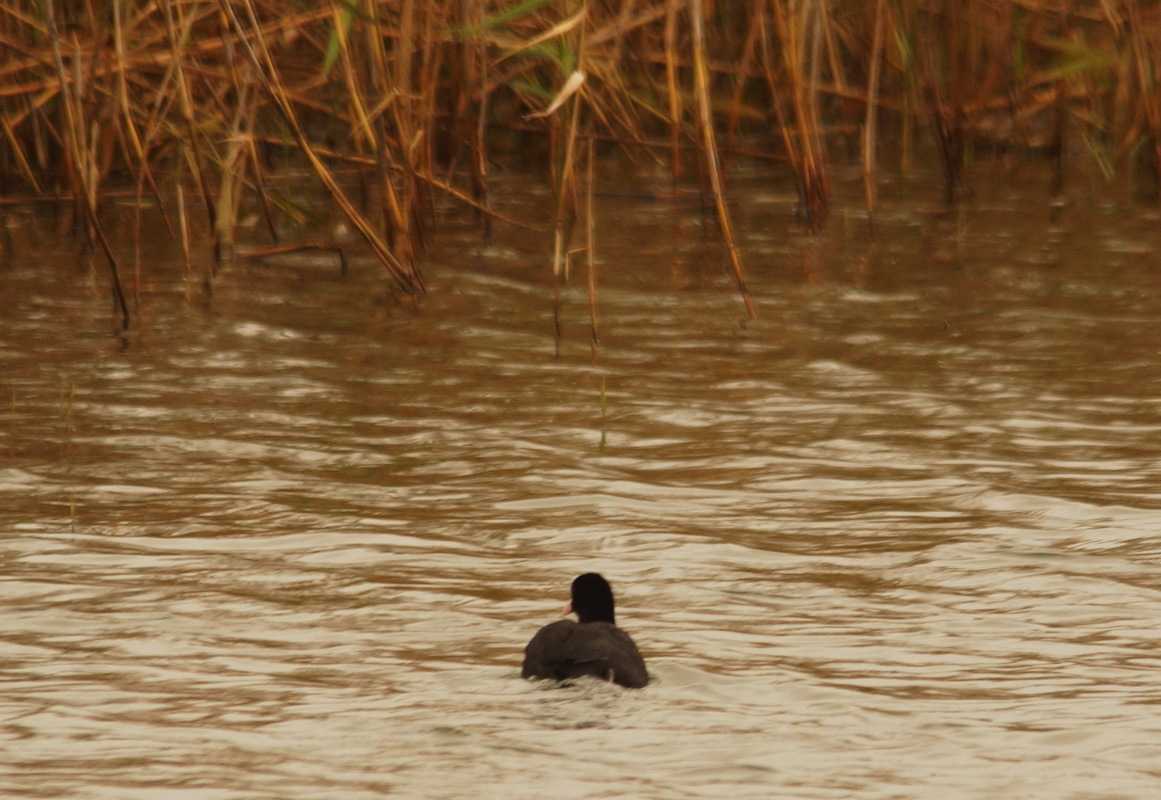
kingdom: Animalia
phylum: Chordata
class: Aves
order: Gruiformes
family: Rallidae
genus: Fulica
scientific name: Fulica atra
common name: Eurasian coot
